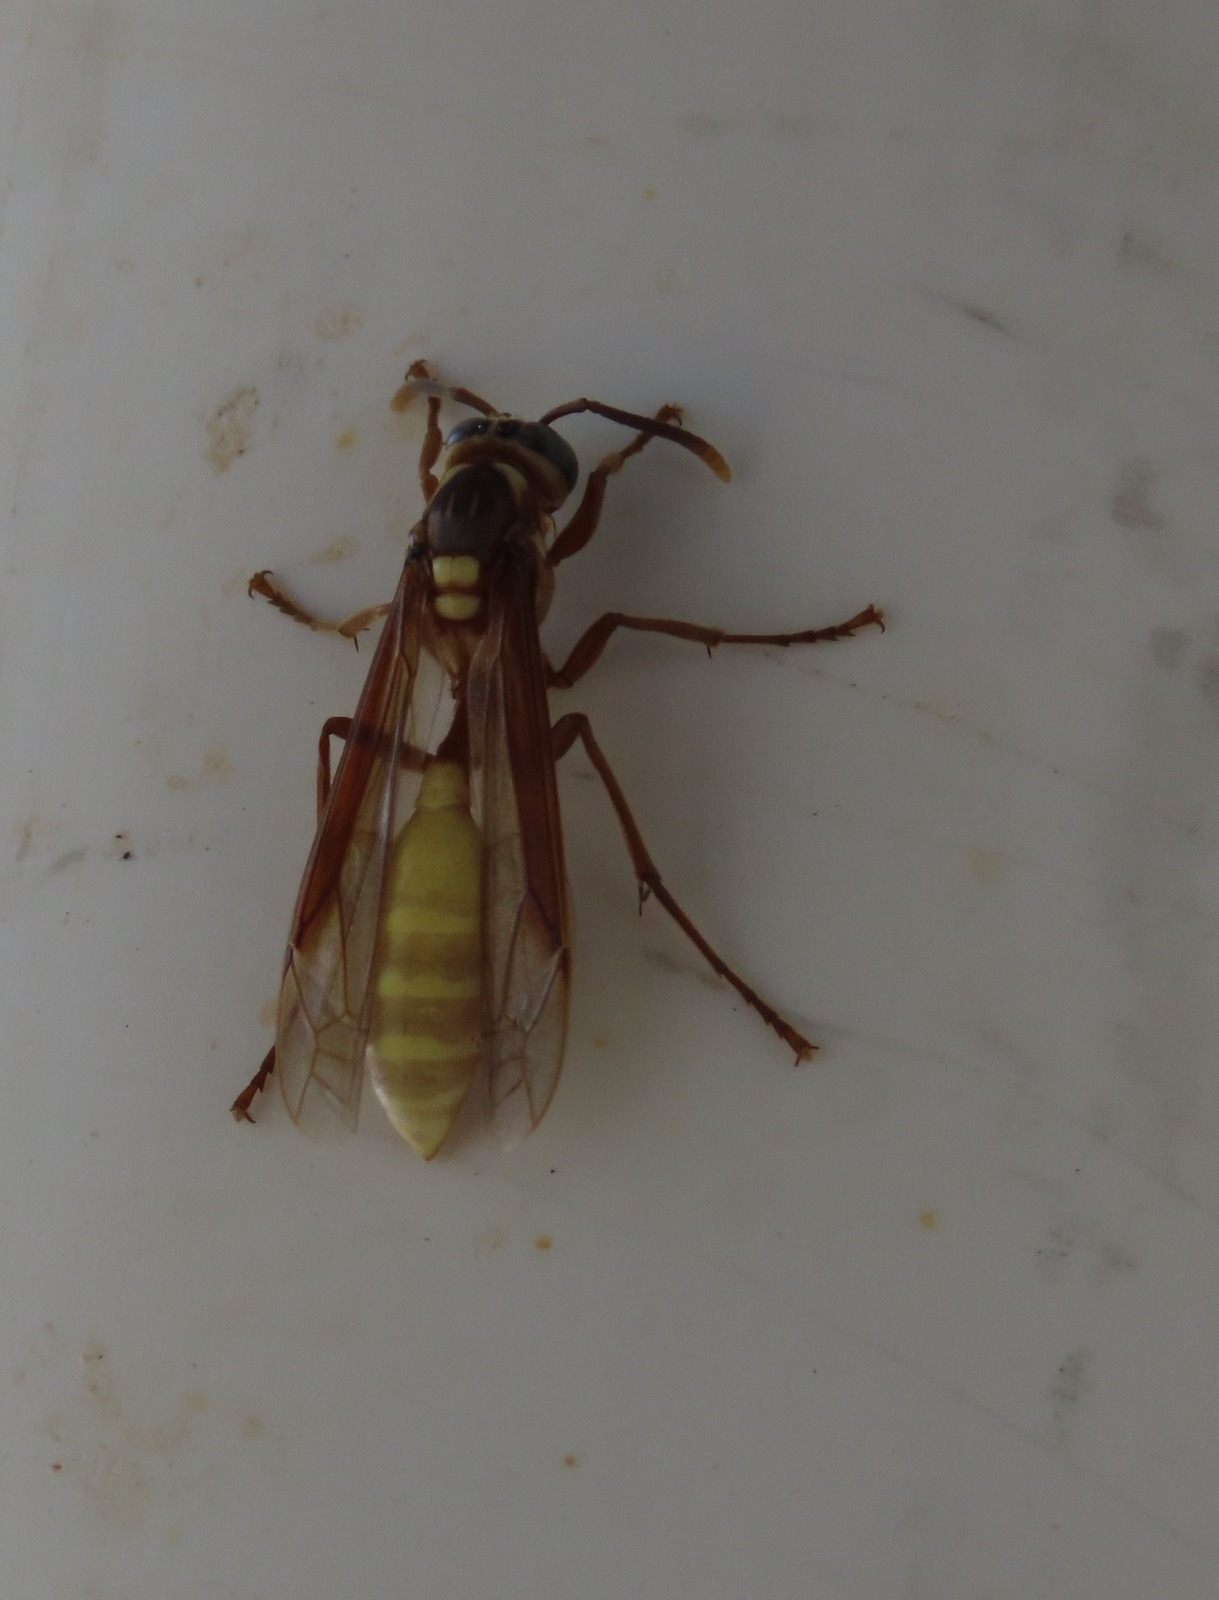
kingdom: Animalia
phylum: Arthropoda
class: Insecta
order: Hymenoptera
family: Vespidae
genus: Apoica
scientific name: Apoica pallens
